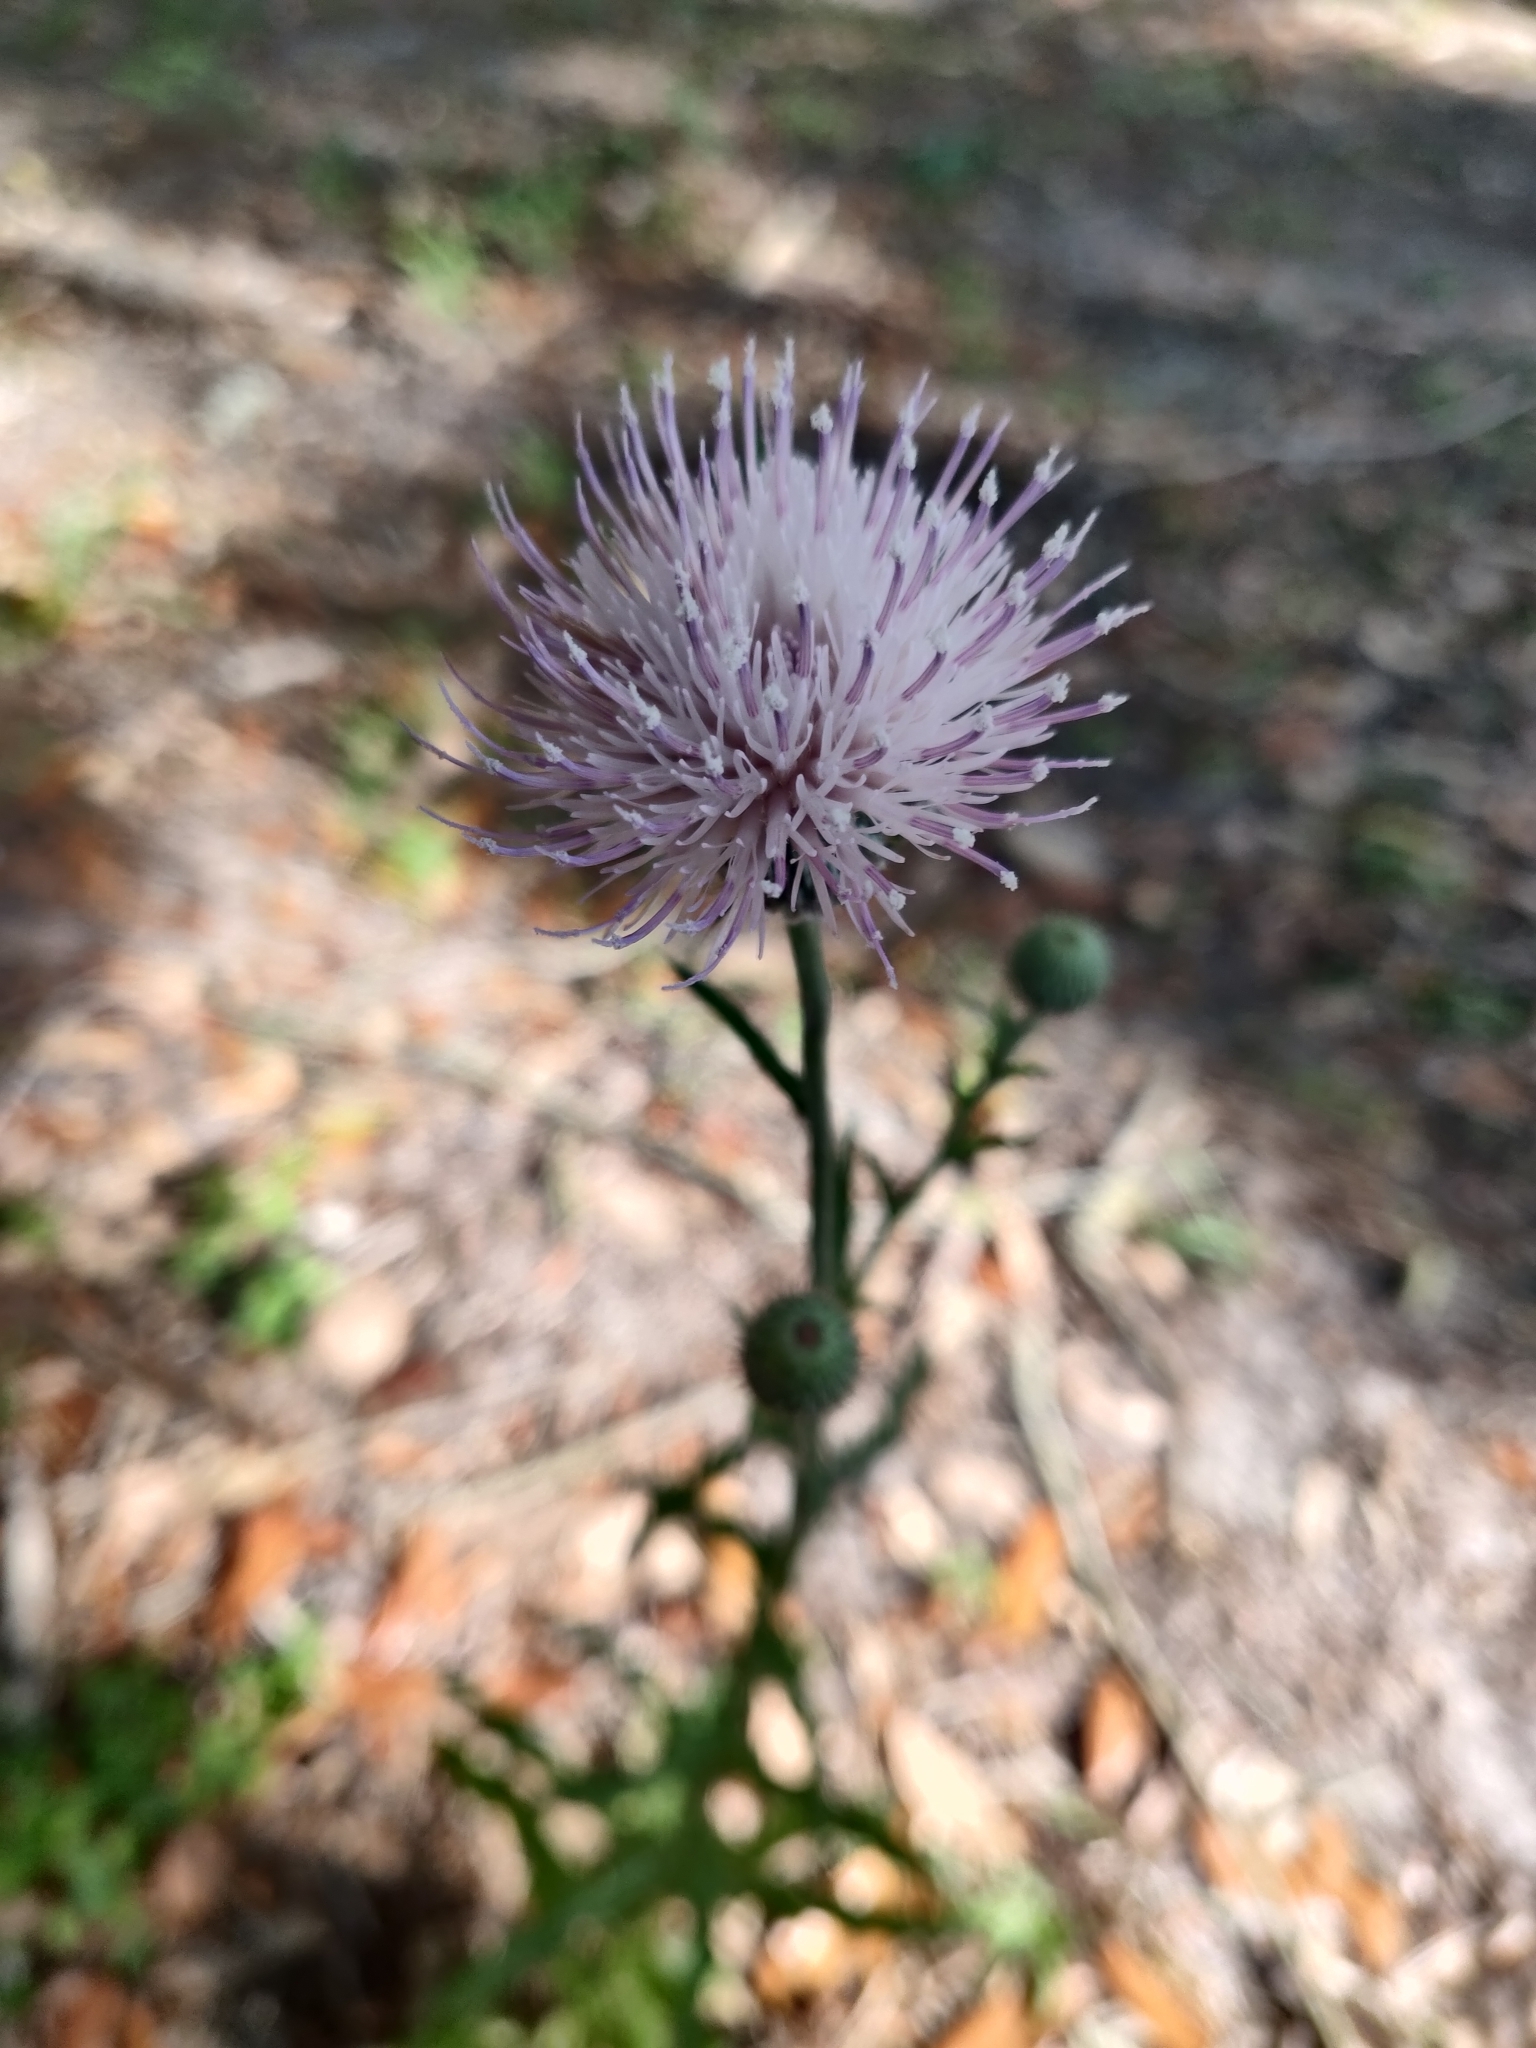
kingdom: Plantae
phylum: Tracheophyta
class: Magnoliopsida
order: Asterales
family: Asteraceae
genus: Cirsium
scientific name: Cirsium nuttalii
